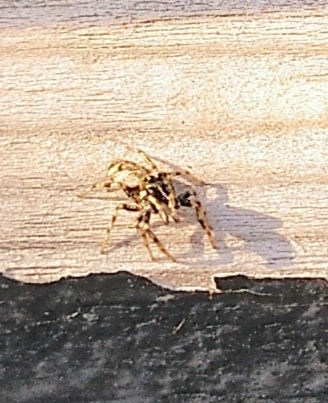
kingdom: Animalia
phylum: Arthropoda
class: Arachnida
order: Araneae
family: Salticidae
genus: Salticus
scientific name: Salticus
